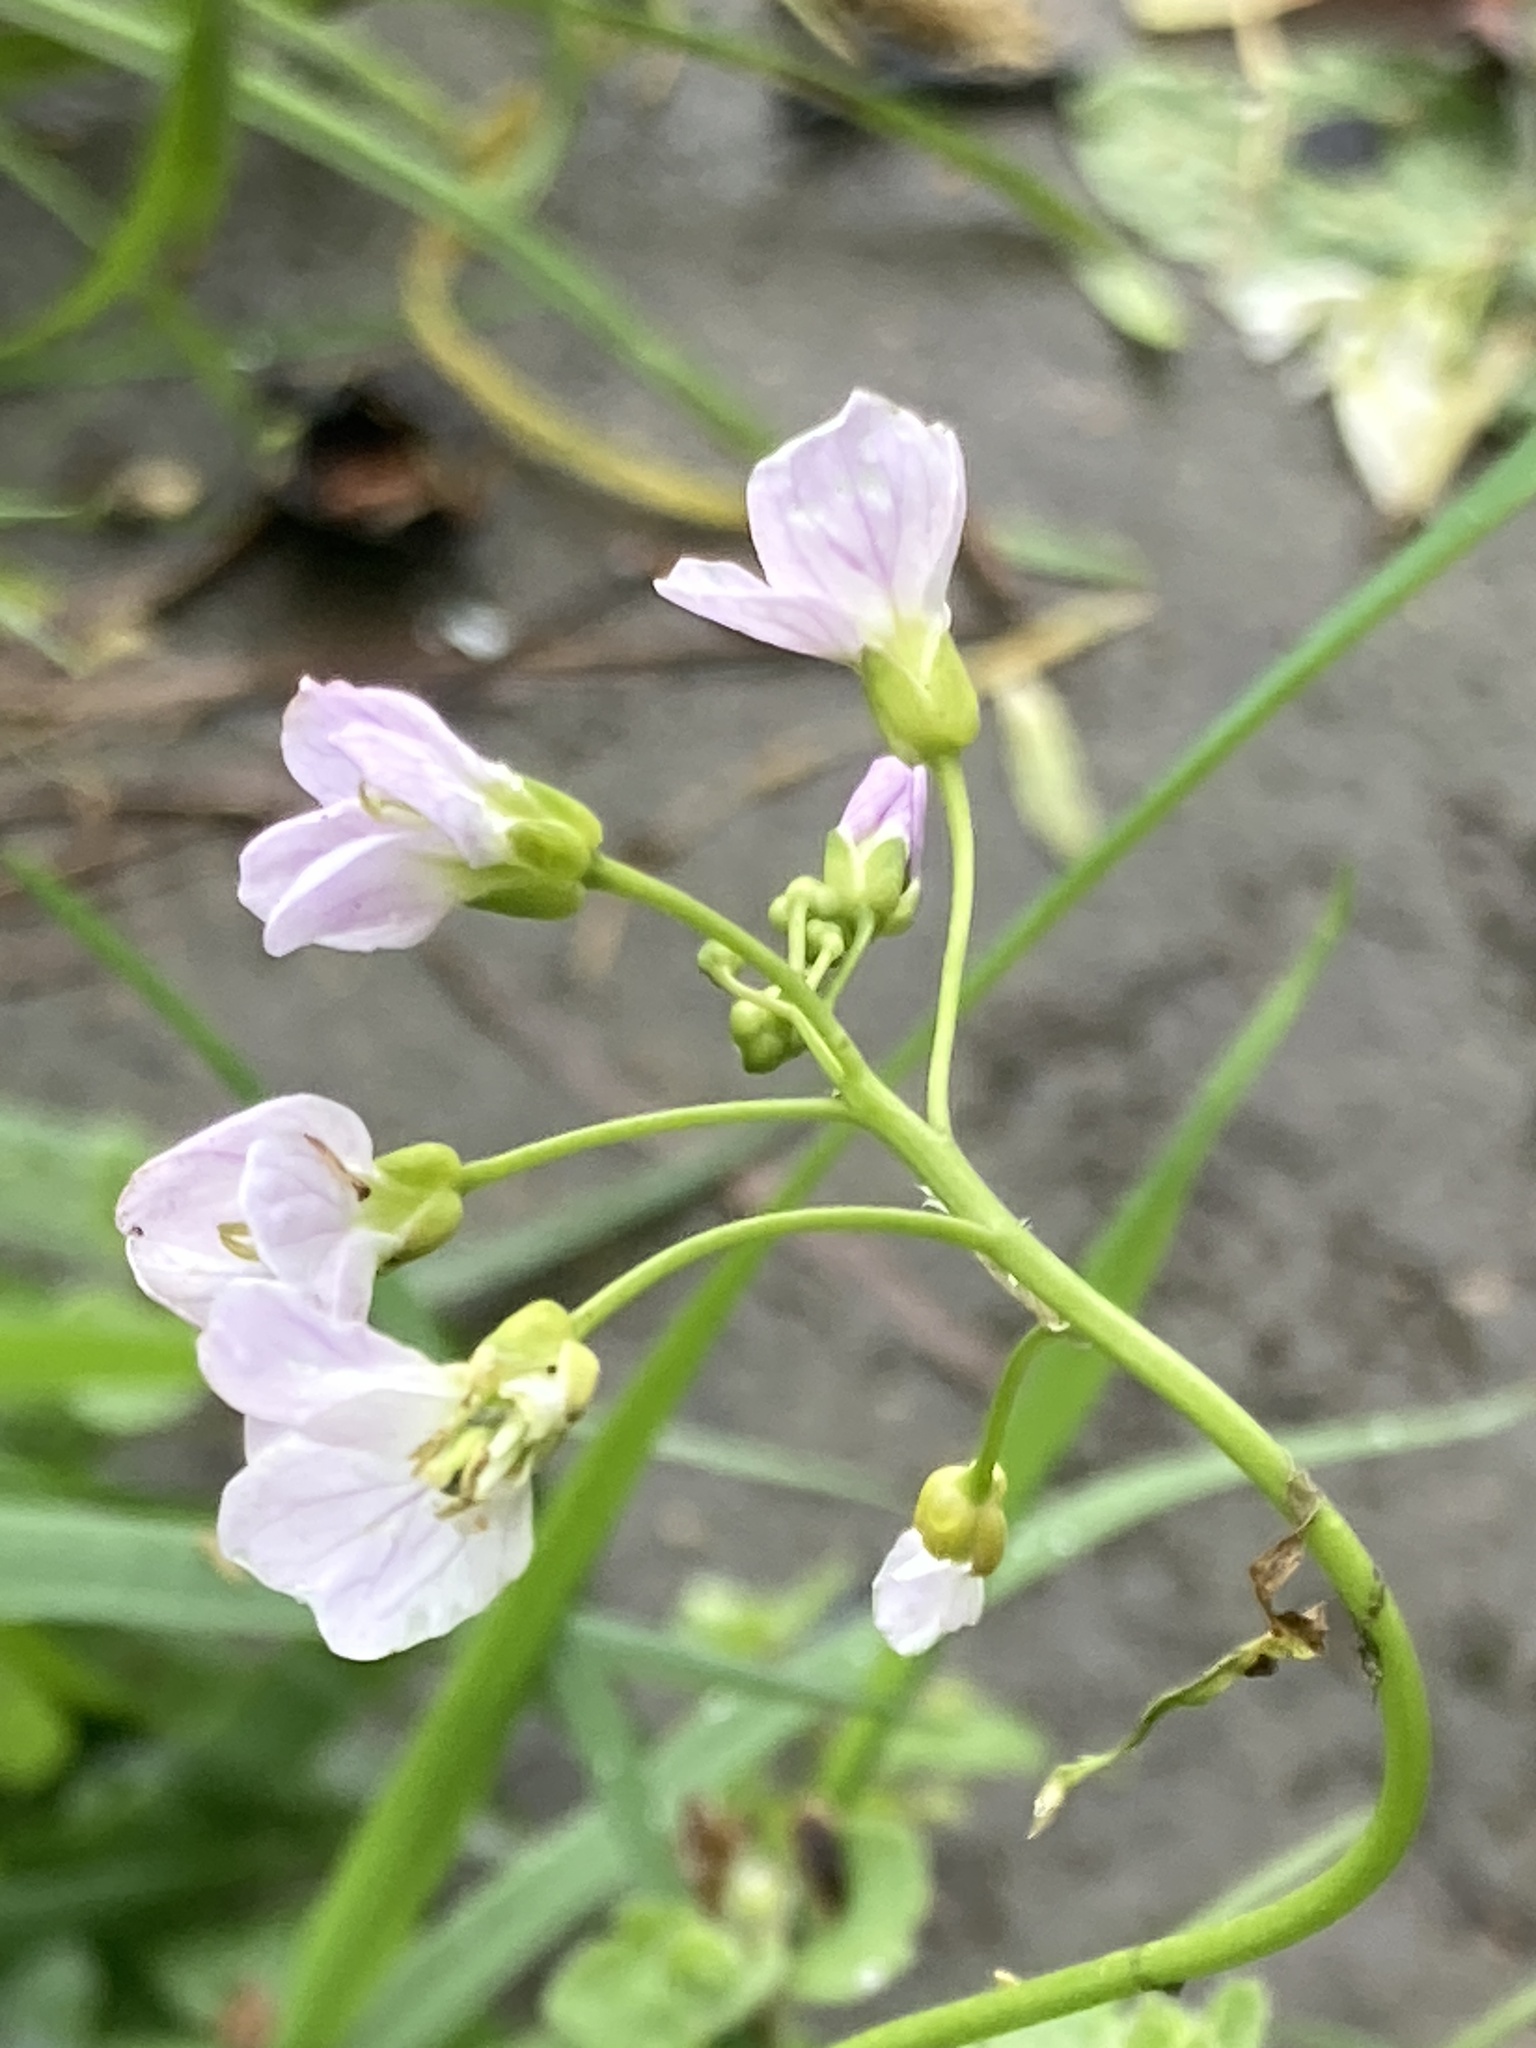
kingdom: Plantae
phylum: Tracheophyta
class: Magnoliopsida
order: Brassicales
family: Brassicaceae
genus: Cardamine
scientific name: Cardamine pratensis
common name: Cuckoo flower
